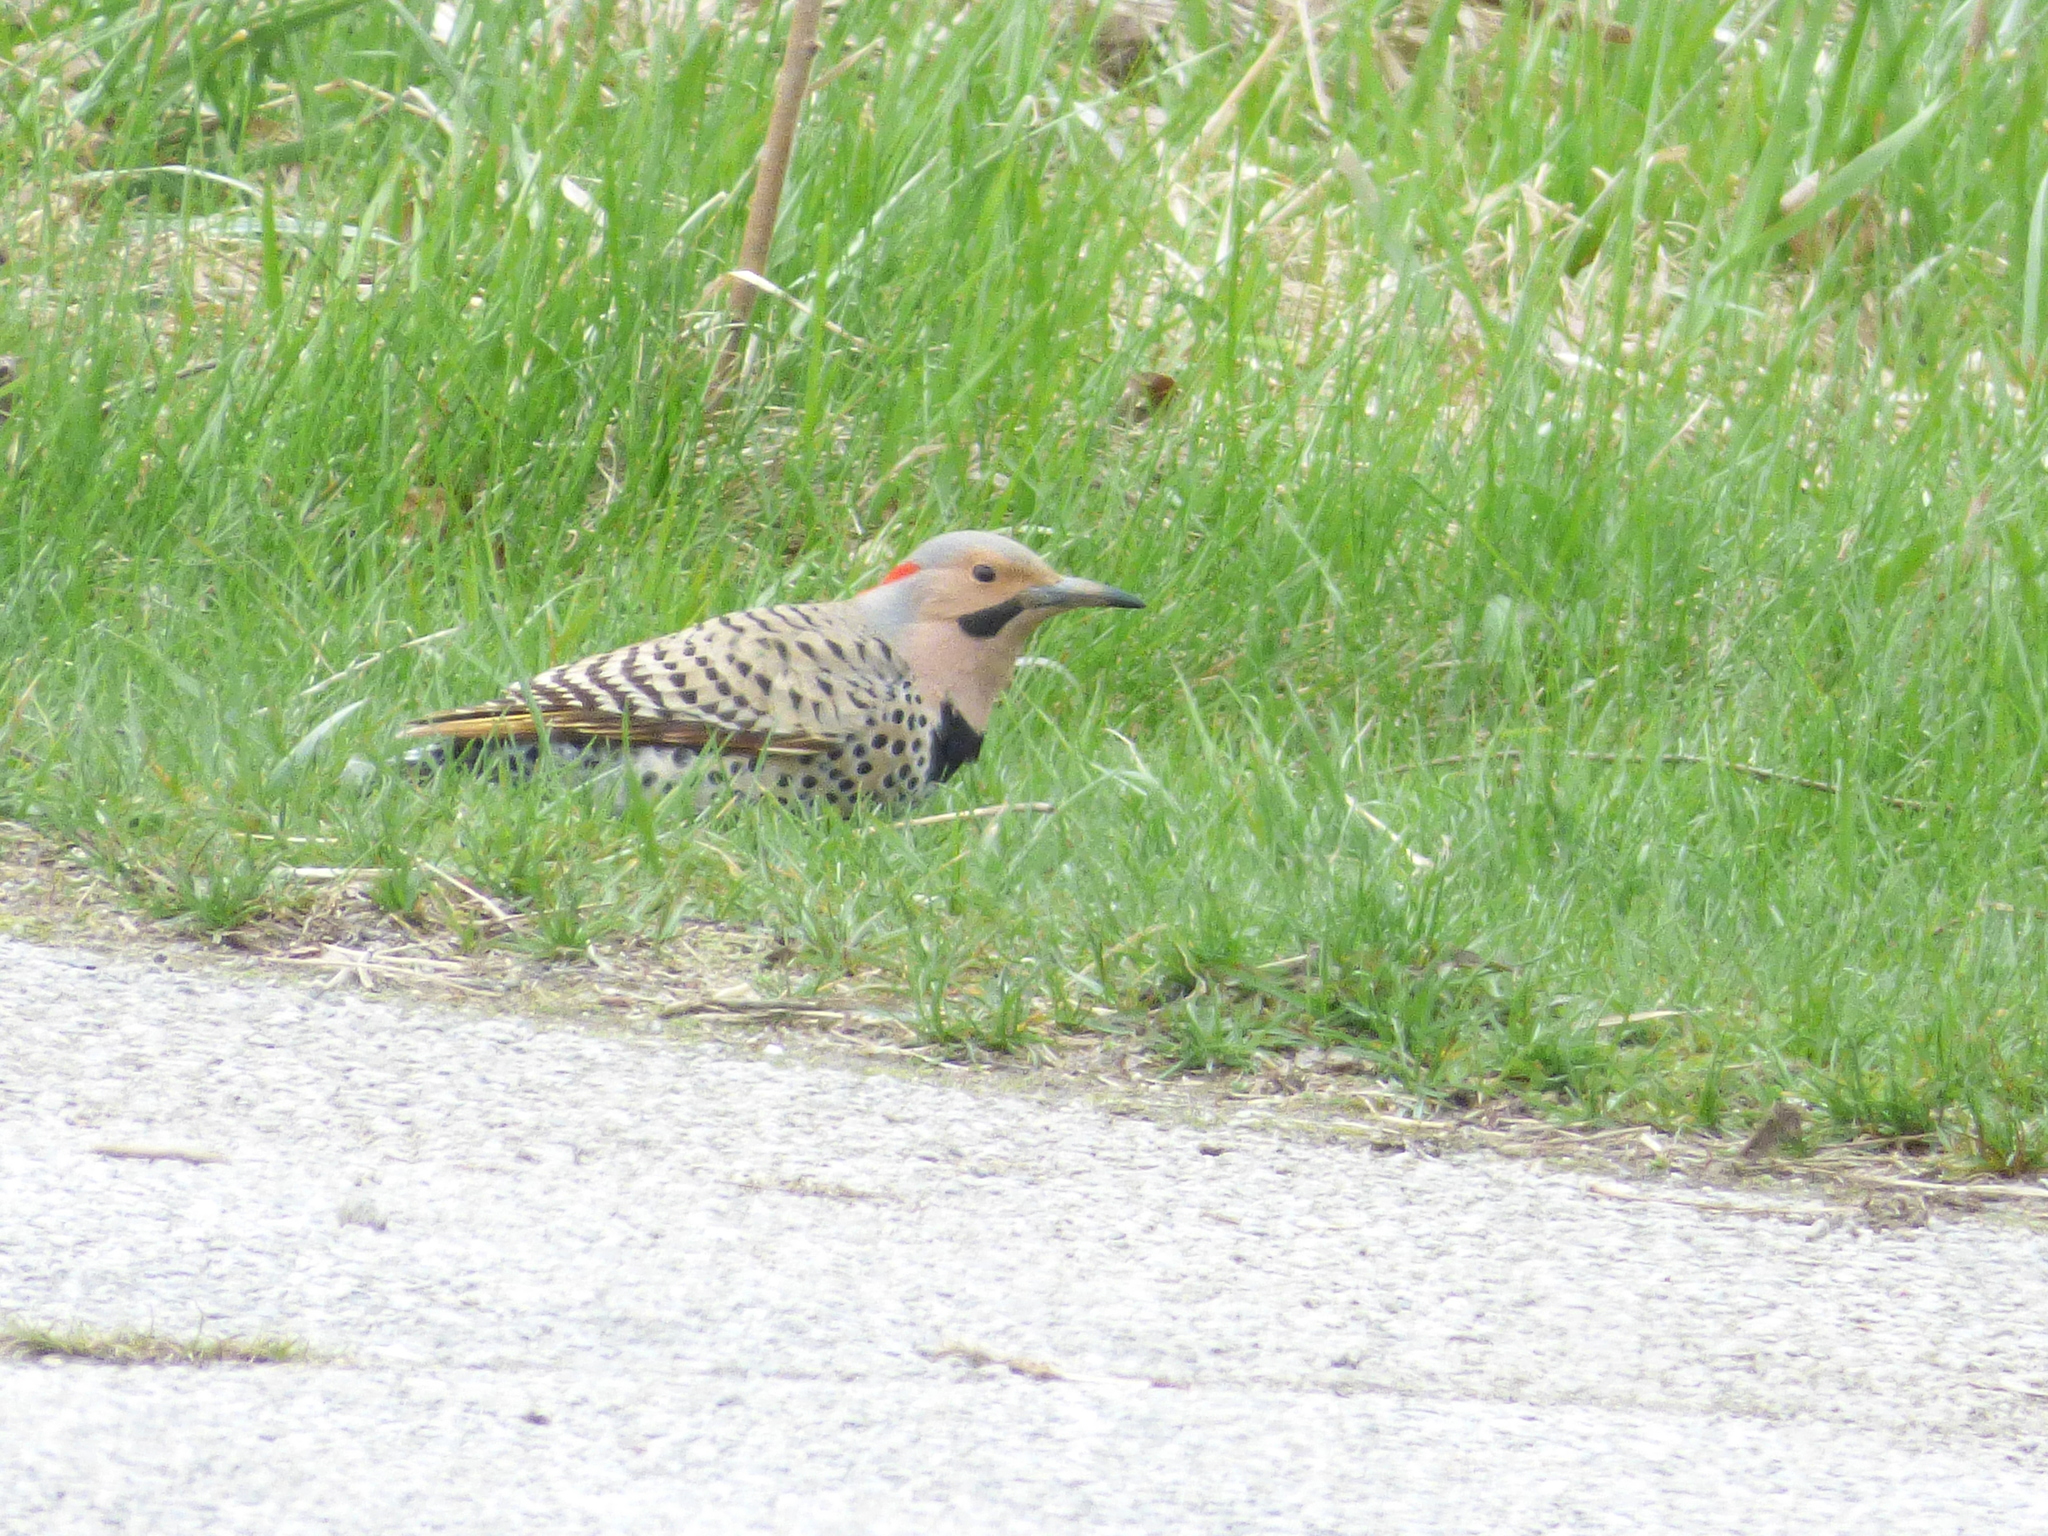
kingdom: Animalia
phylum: Chordata
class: Aves
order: Piciformes
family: Picidae
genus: Colaptes
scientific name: Colaptes auratus
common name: Northern flicker
